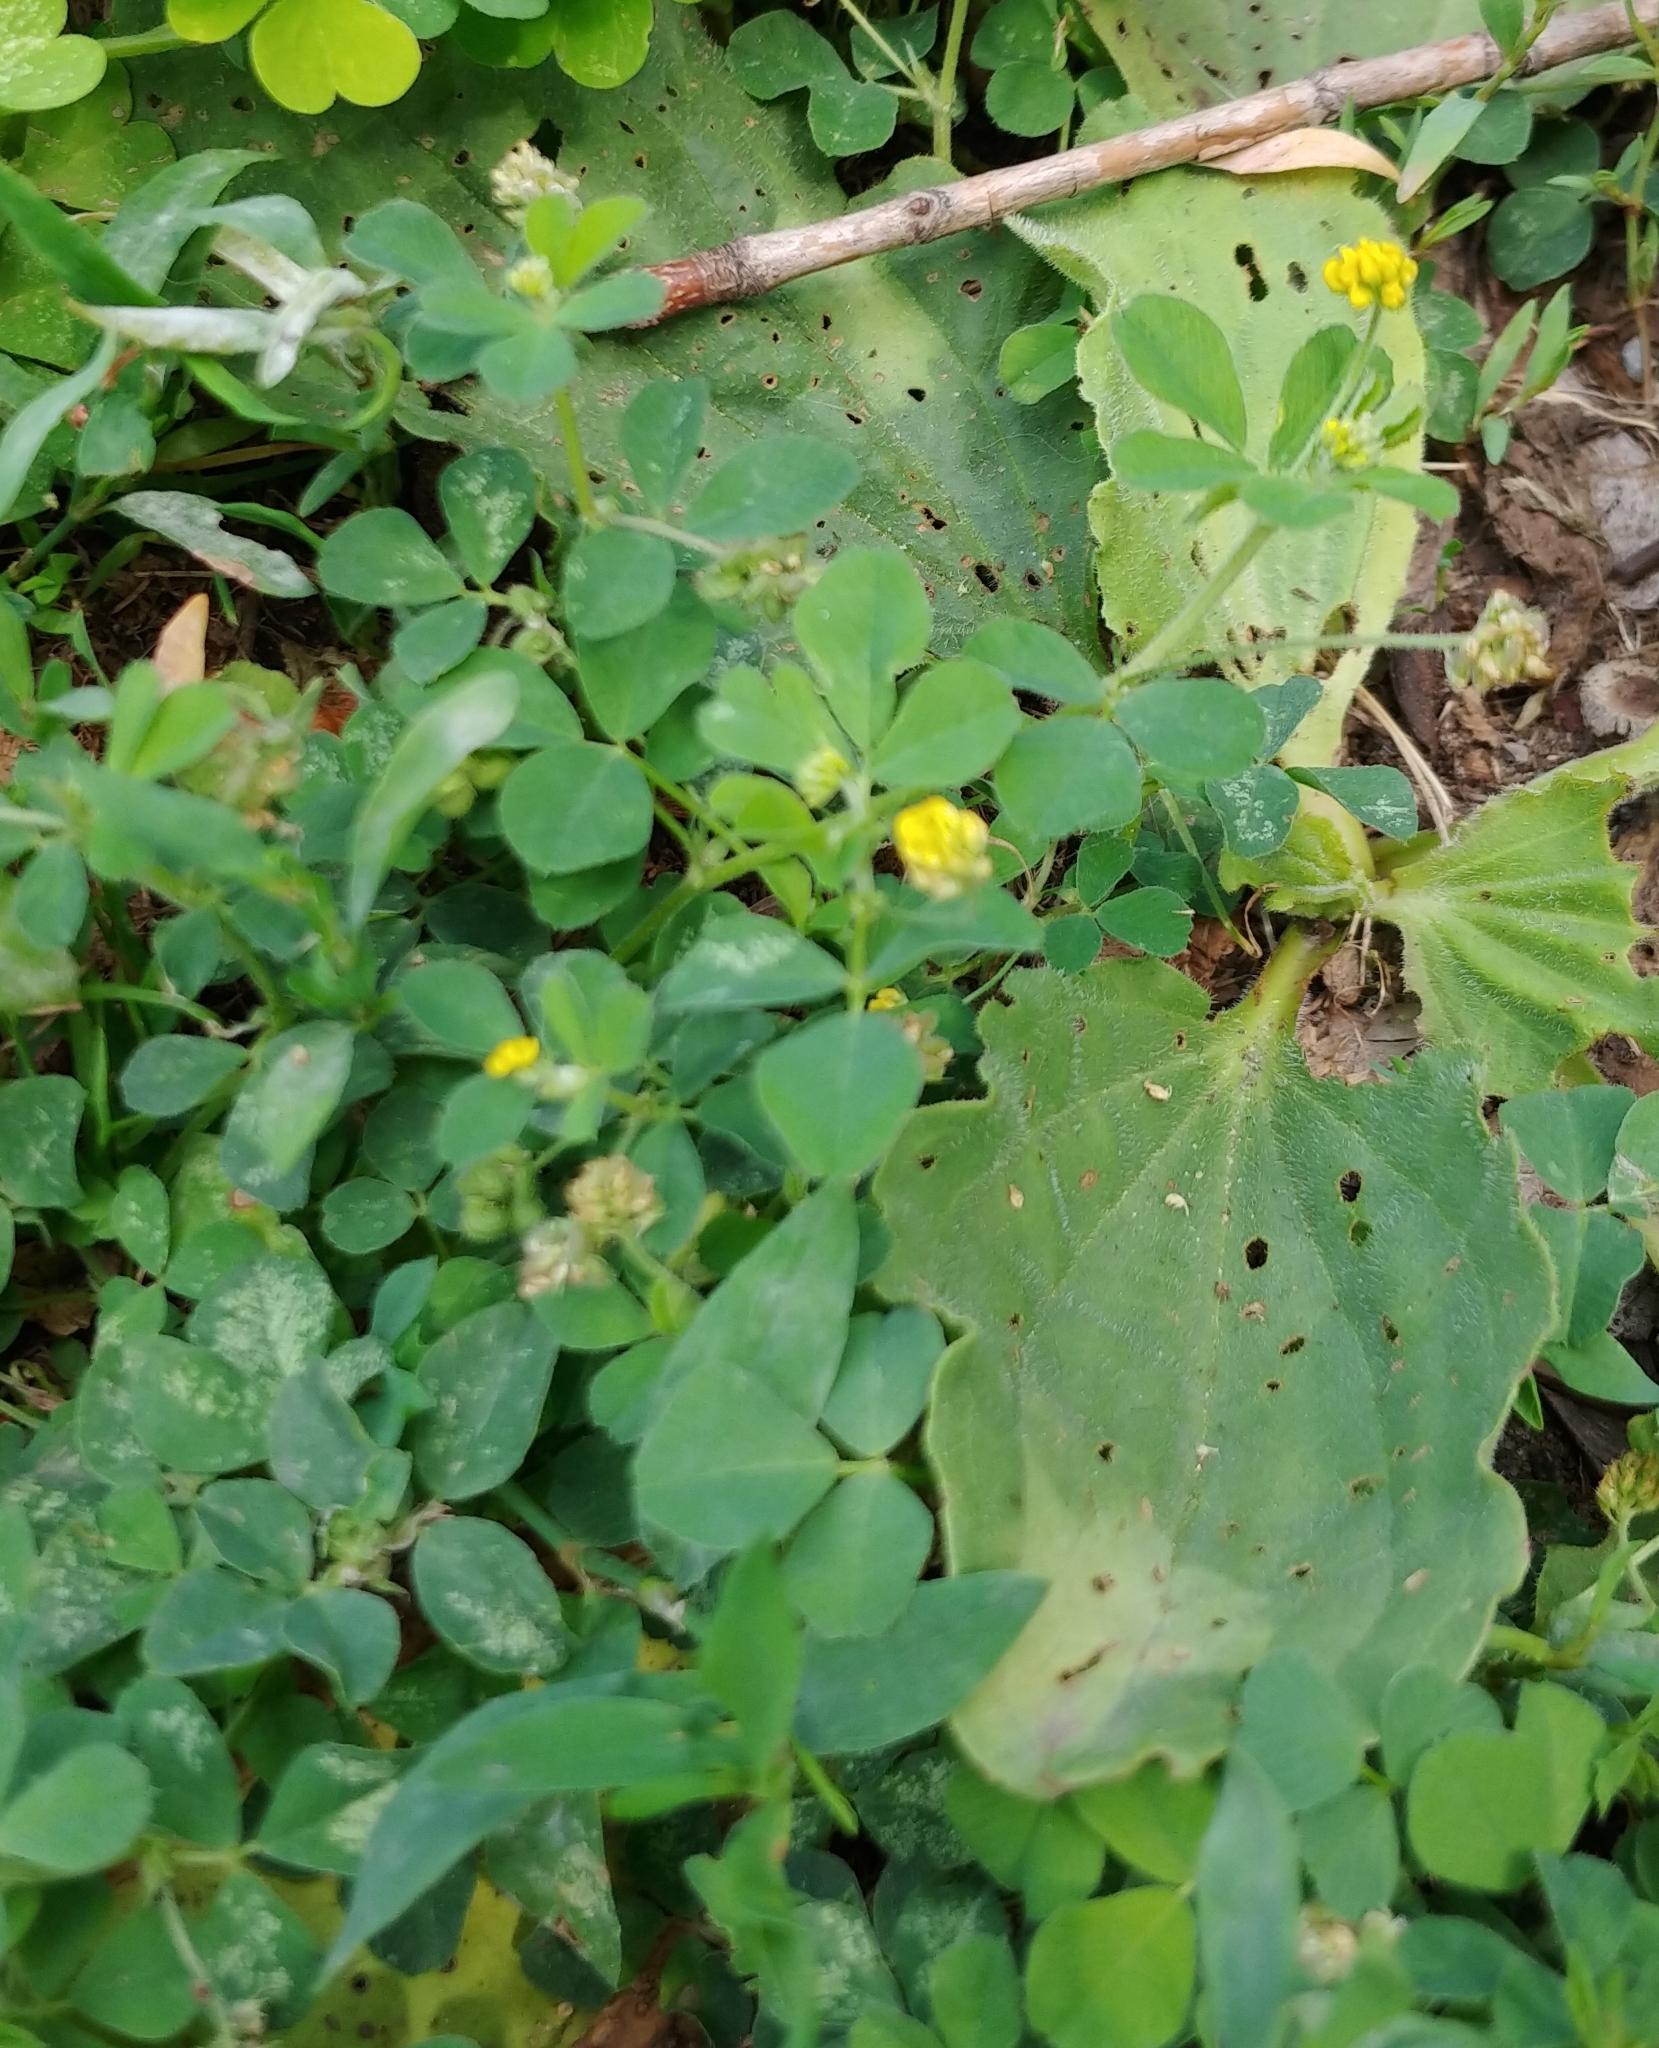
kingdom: Plantae
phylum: Tracheophyta
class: Magnoliopsida
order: Fabales
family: Fabaceae
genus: Medicago
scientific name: Medicago lupulina
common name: Black medick
